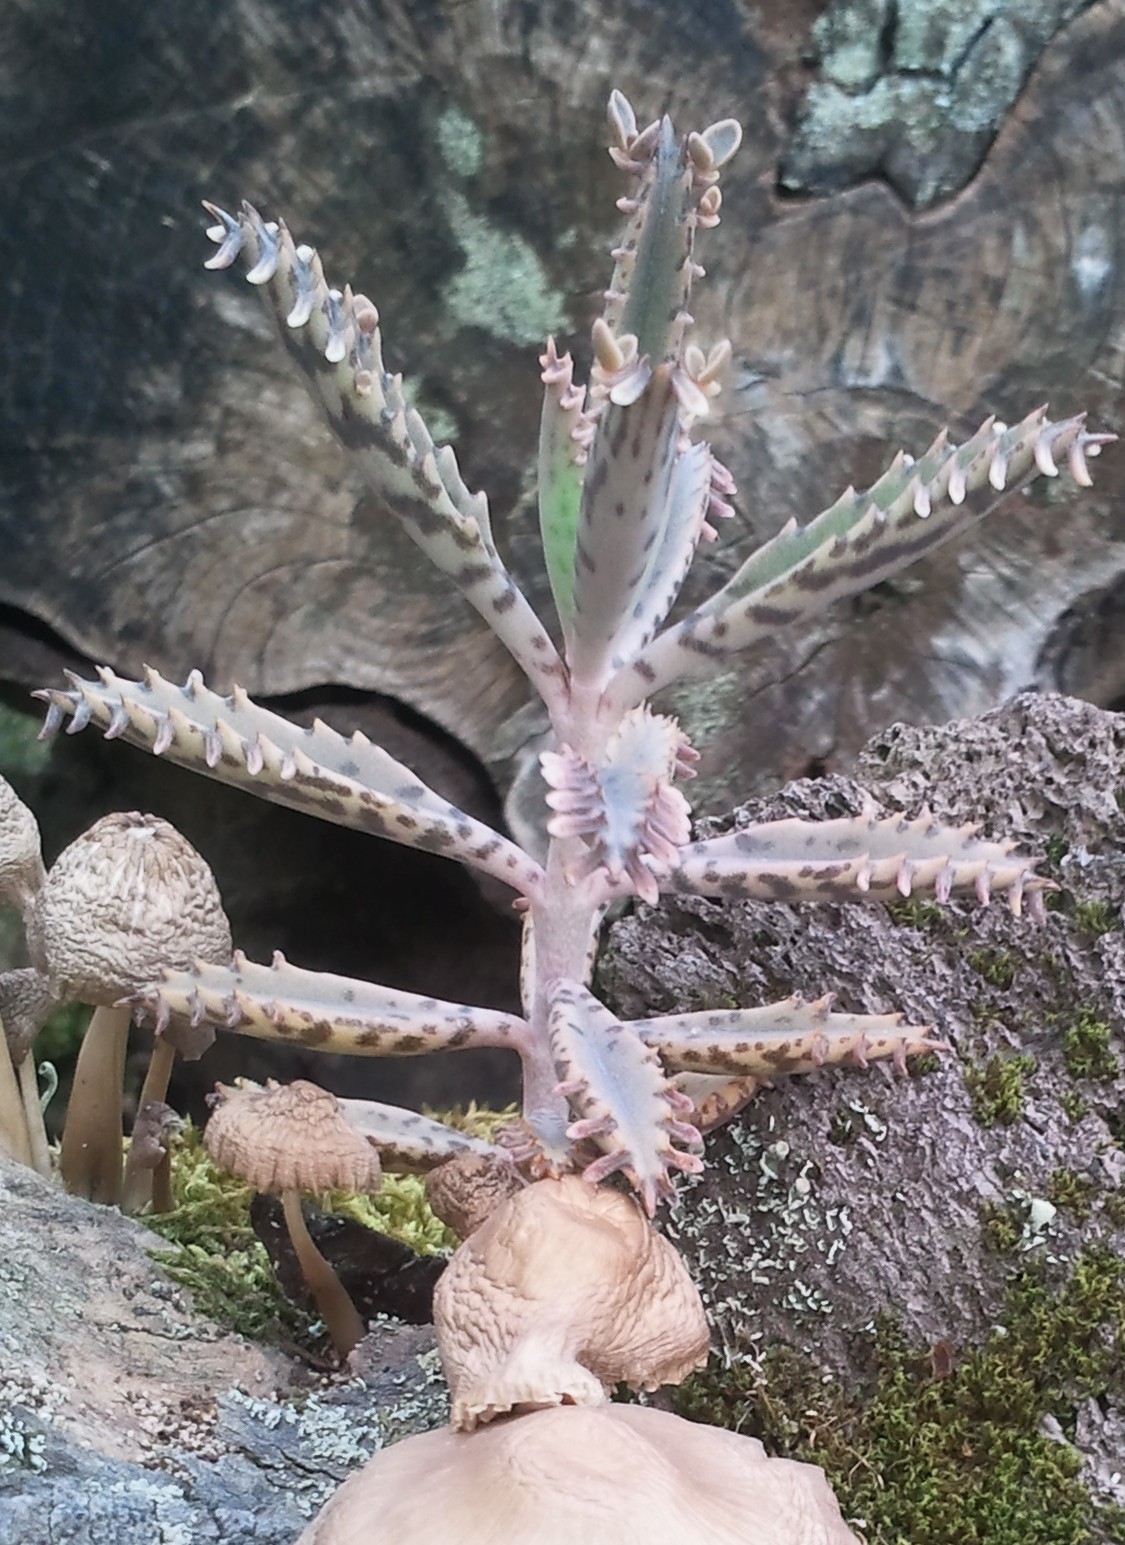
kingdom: Plantae
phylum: Tracheophyta
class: Magnoliopsida
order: Saxifragales
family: Crassulaceae
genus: Kalanchoe
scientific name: Kalanchoe houghtonii
